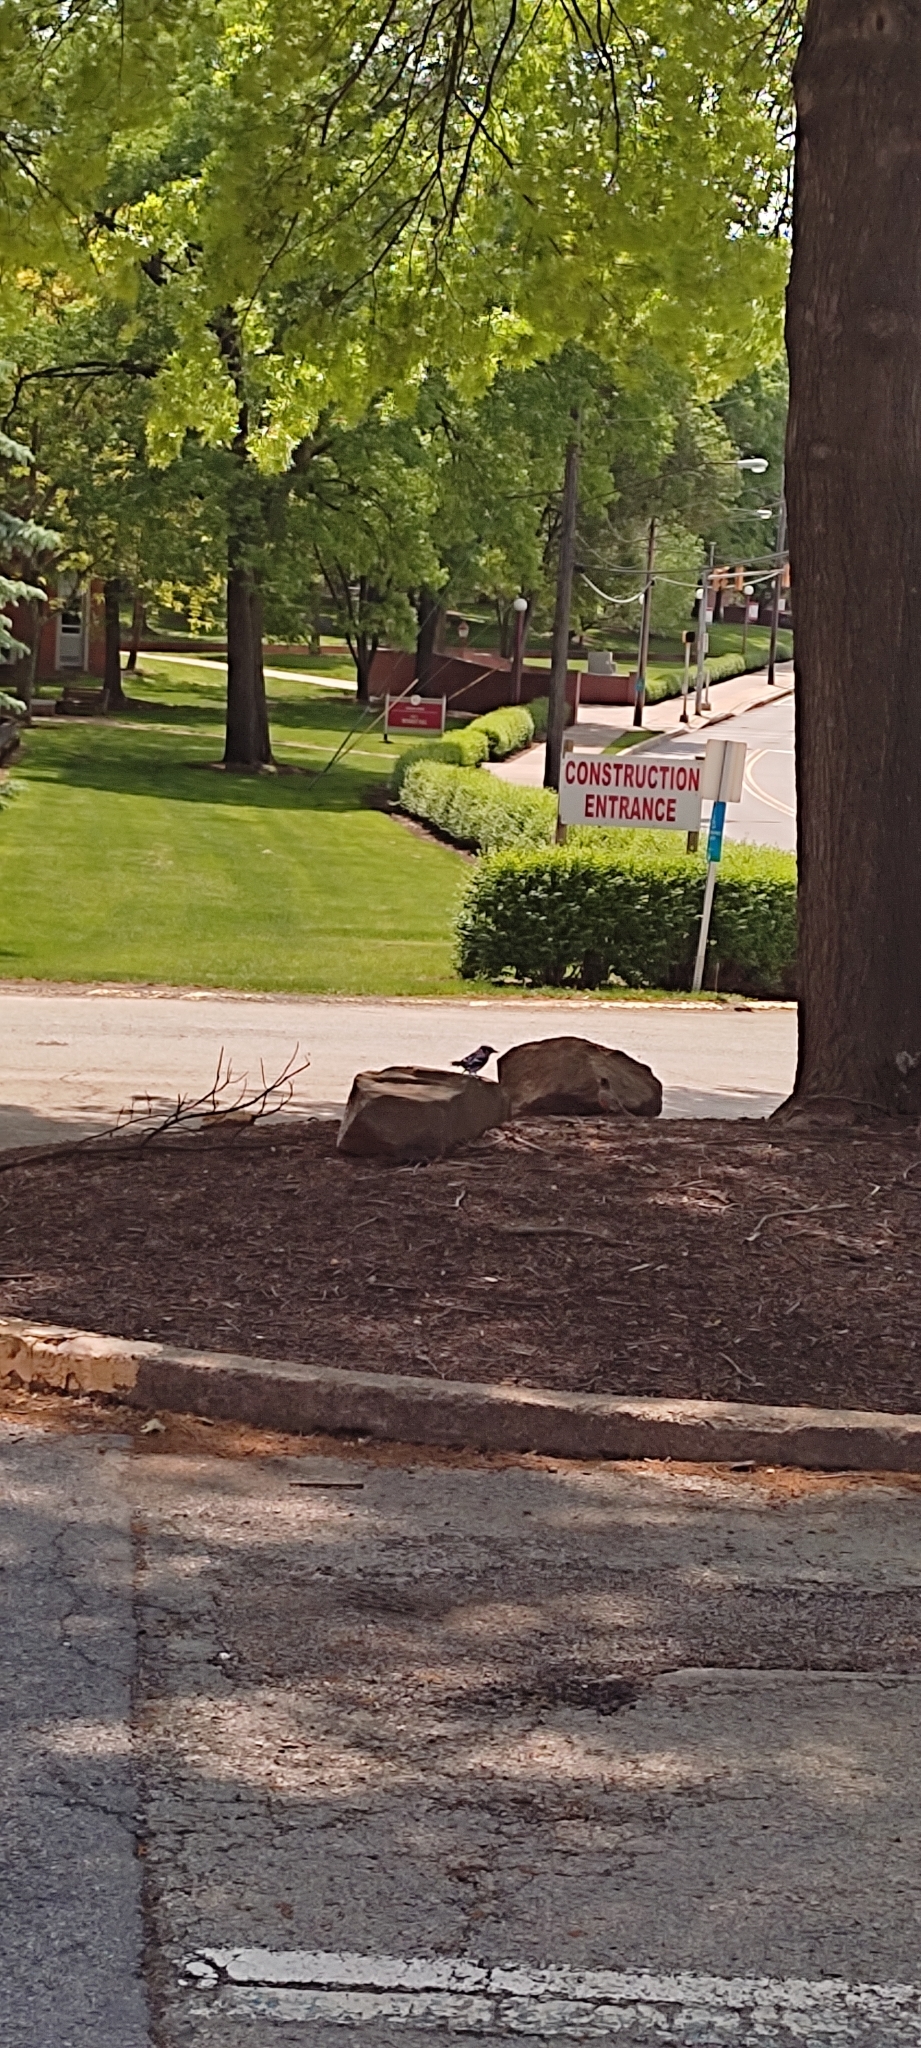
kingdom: Animalia
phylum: Chordata
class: Aves
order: Passeriformes
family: Corvidae
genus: Cyanocitta
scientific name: Cyanocitta cristata
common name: Blue jay
